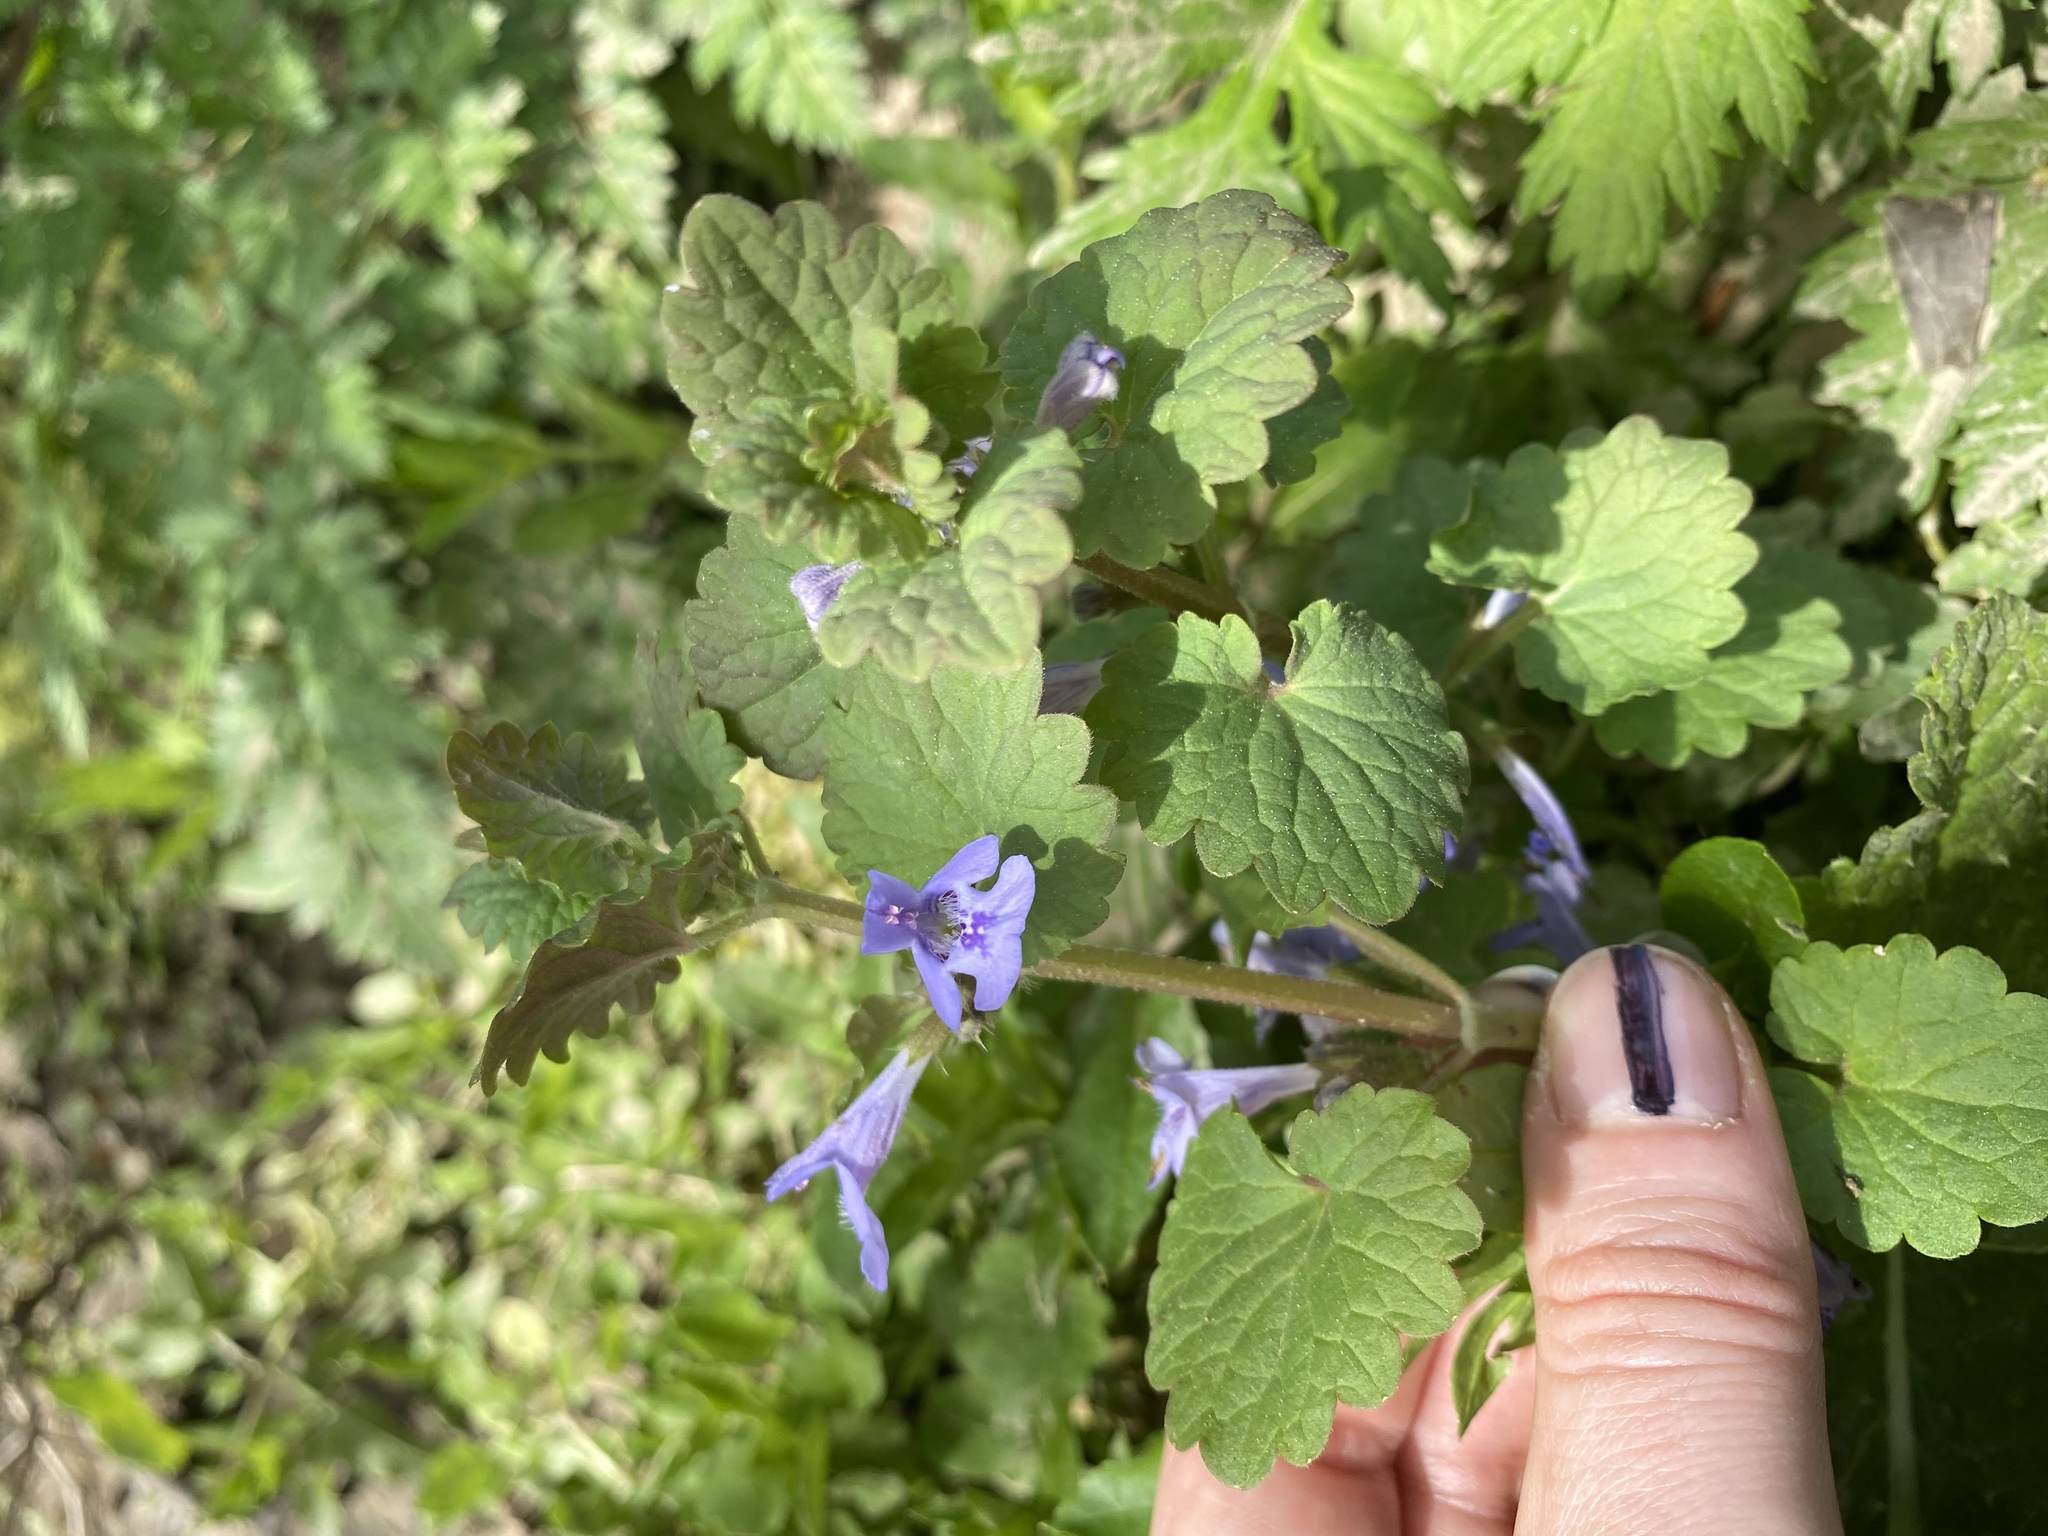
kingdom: Plantae
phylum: Tracheophyta
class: Magnoliopsida
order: Lamiales
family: Lamiaceae
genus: Glechoma
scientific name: Glechoma hederacea
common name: Ground ivy
